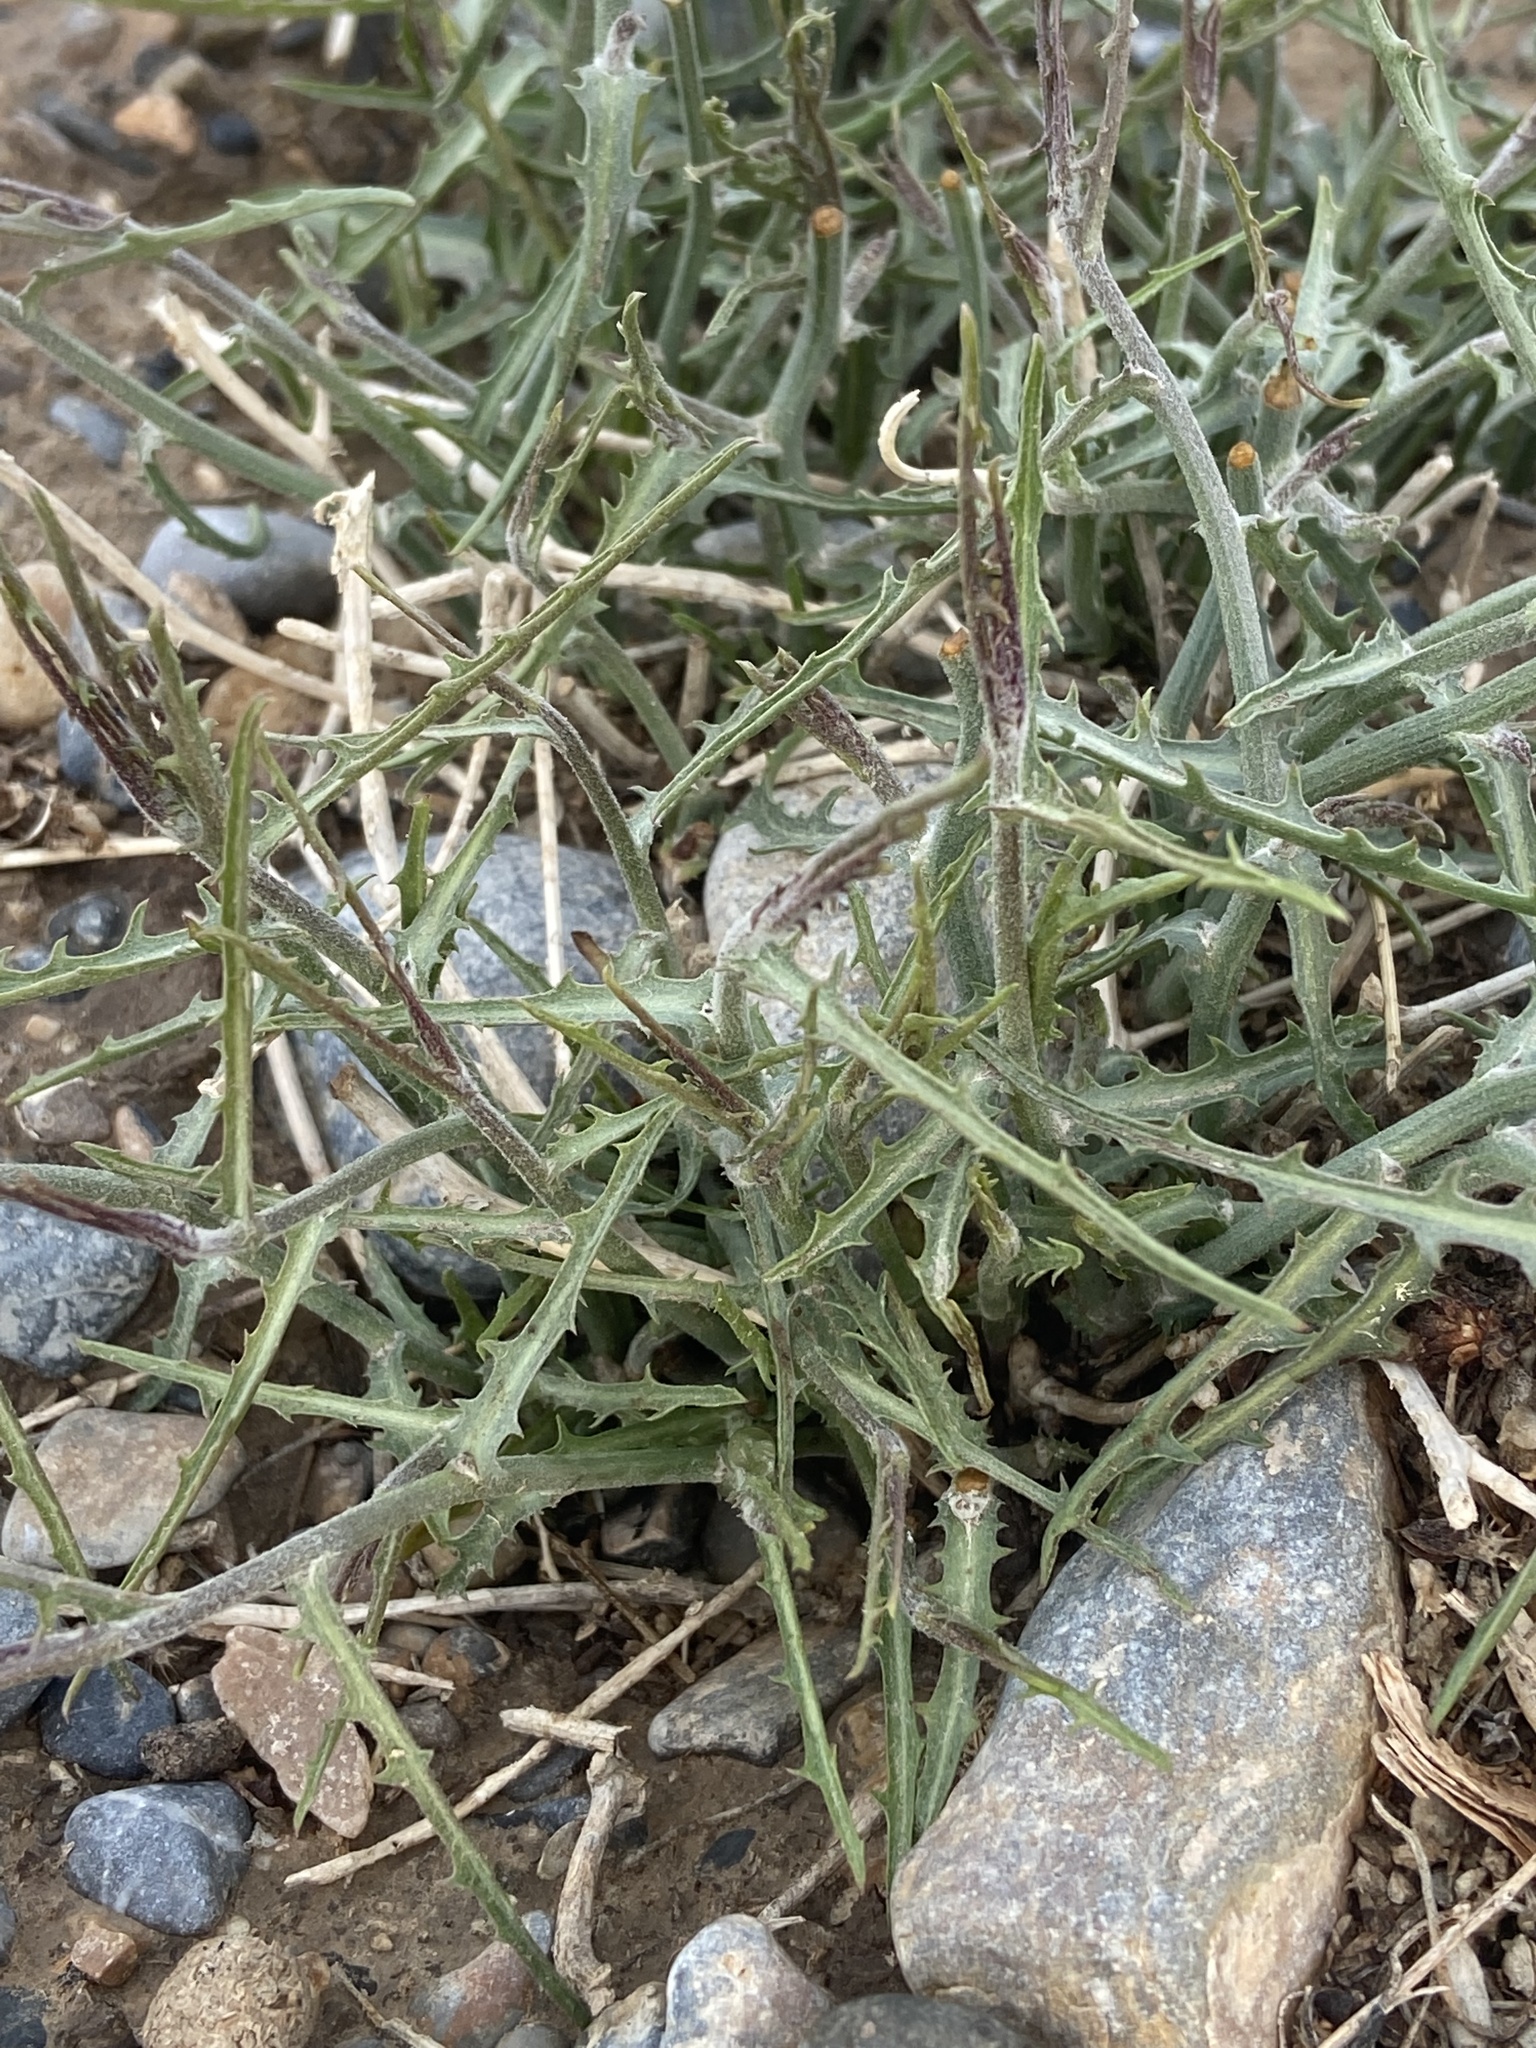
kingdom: Plantae
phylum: Tracheophyta
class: Magnoliopsida
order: Asterales
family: Asteraceae
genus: Stephanomeria
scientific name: Stephanomeria pauciflora
